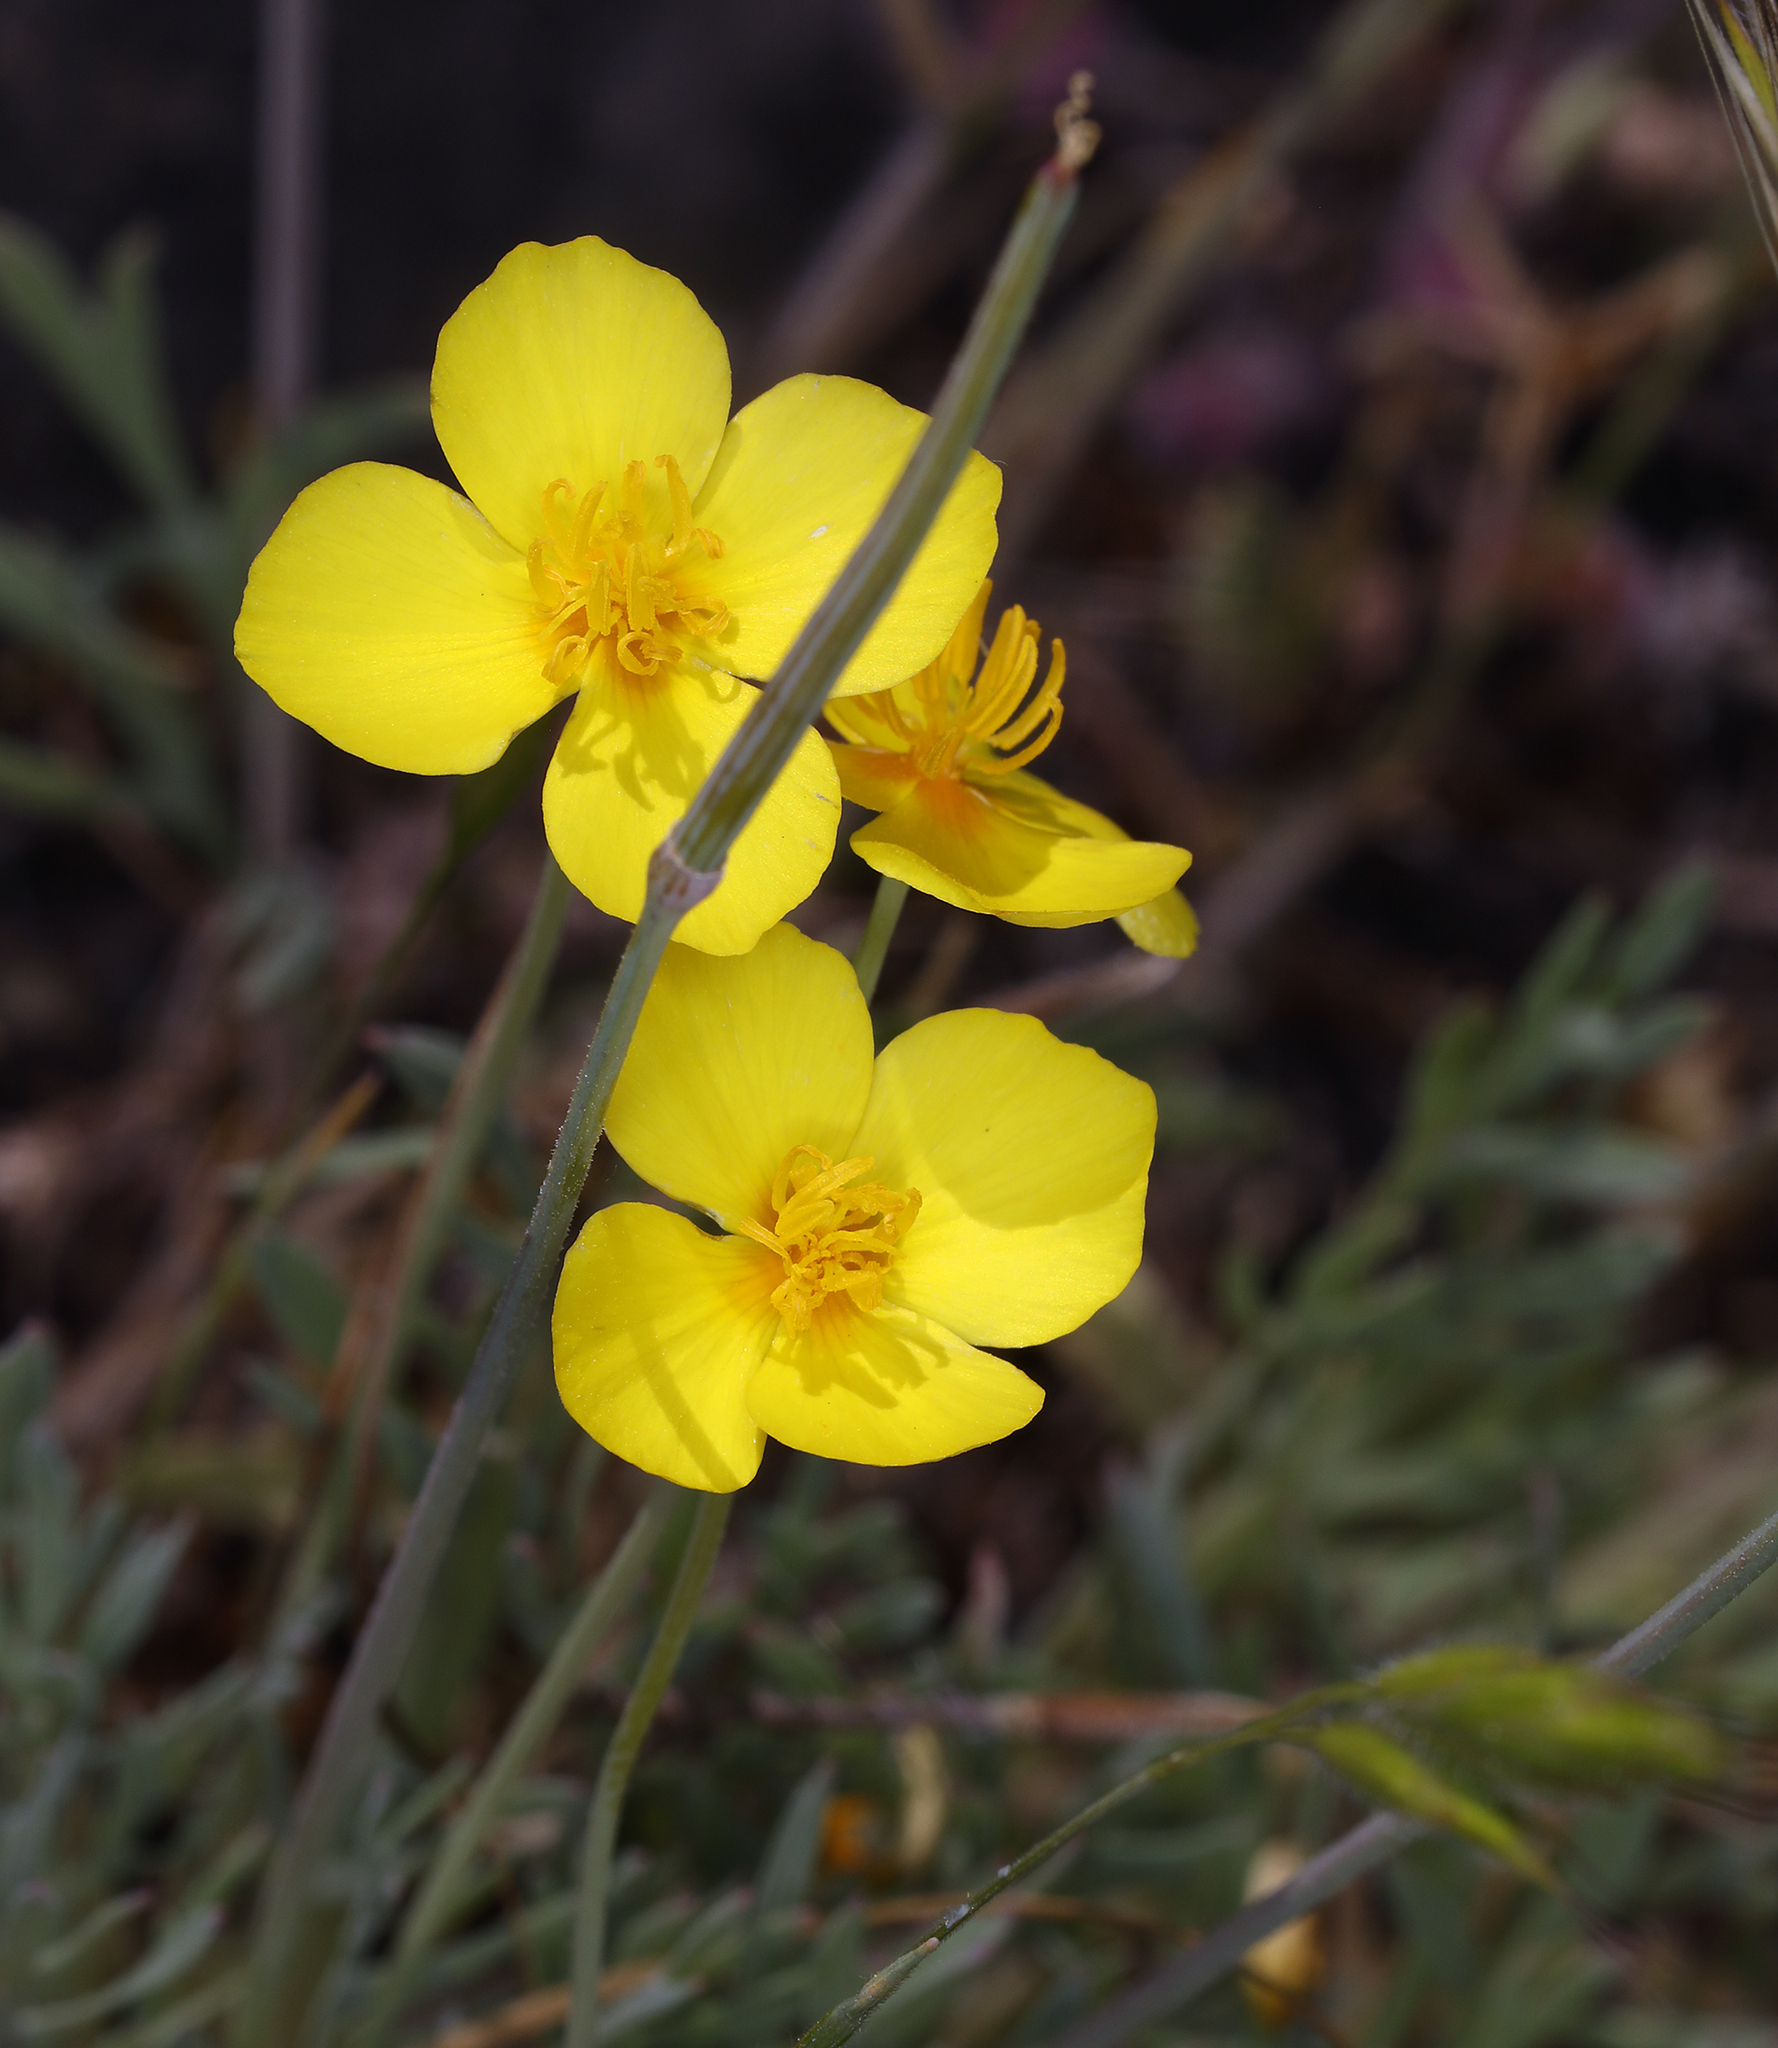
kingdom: Plantae
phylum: Tracheophyta
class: Magnoliopsida
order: Ranunculales
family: Papaveraceae
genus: Eschscholzia
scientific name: Eschscholzia lobbii
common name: Frying-pans
